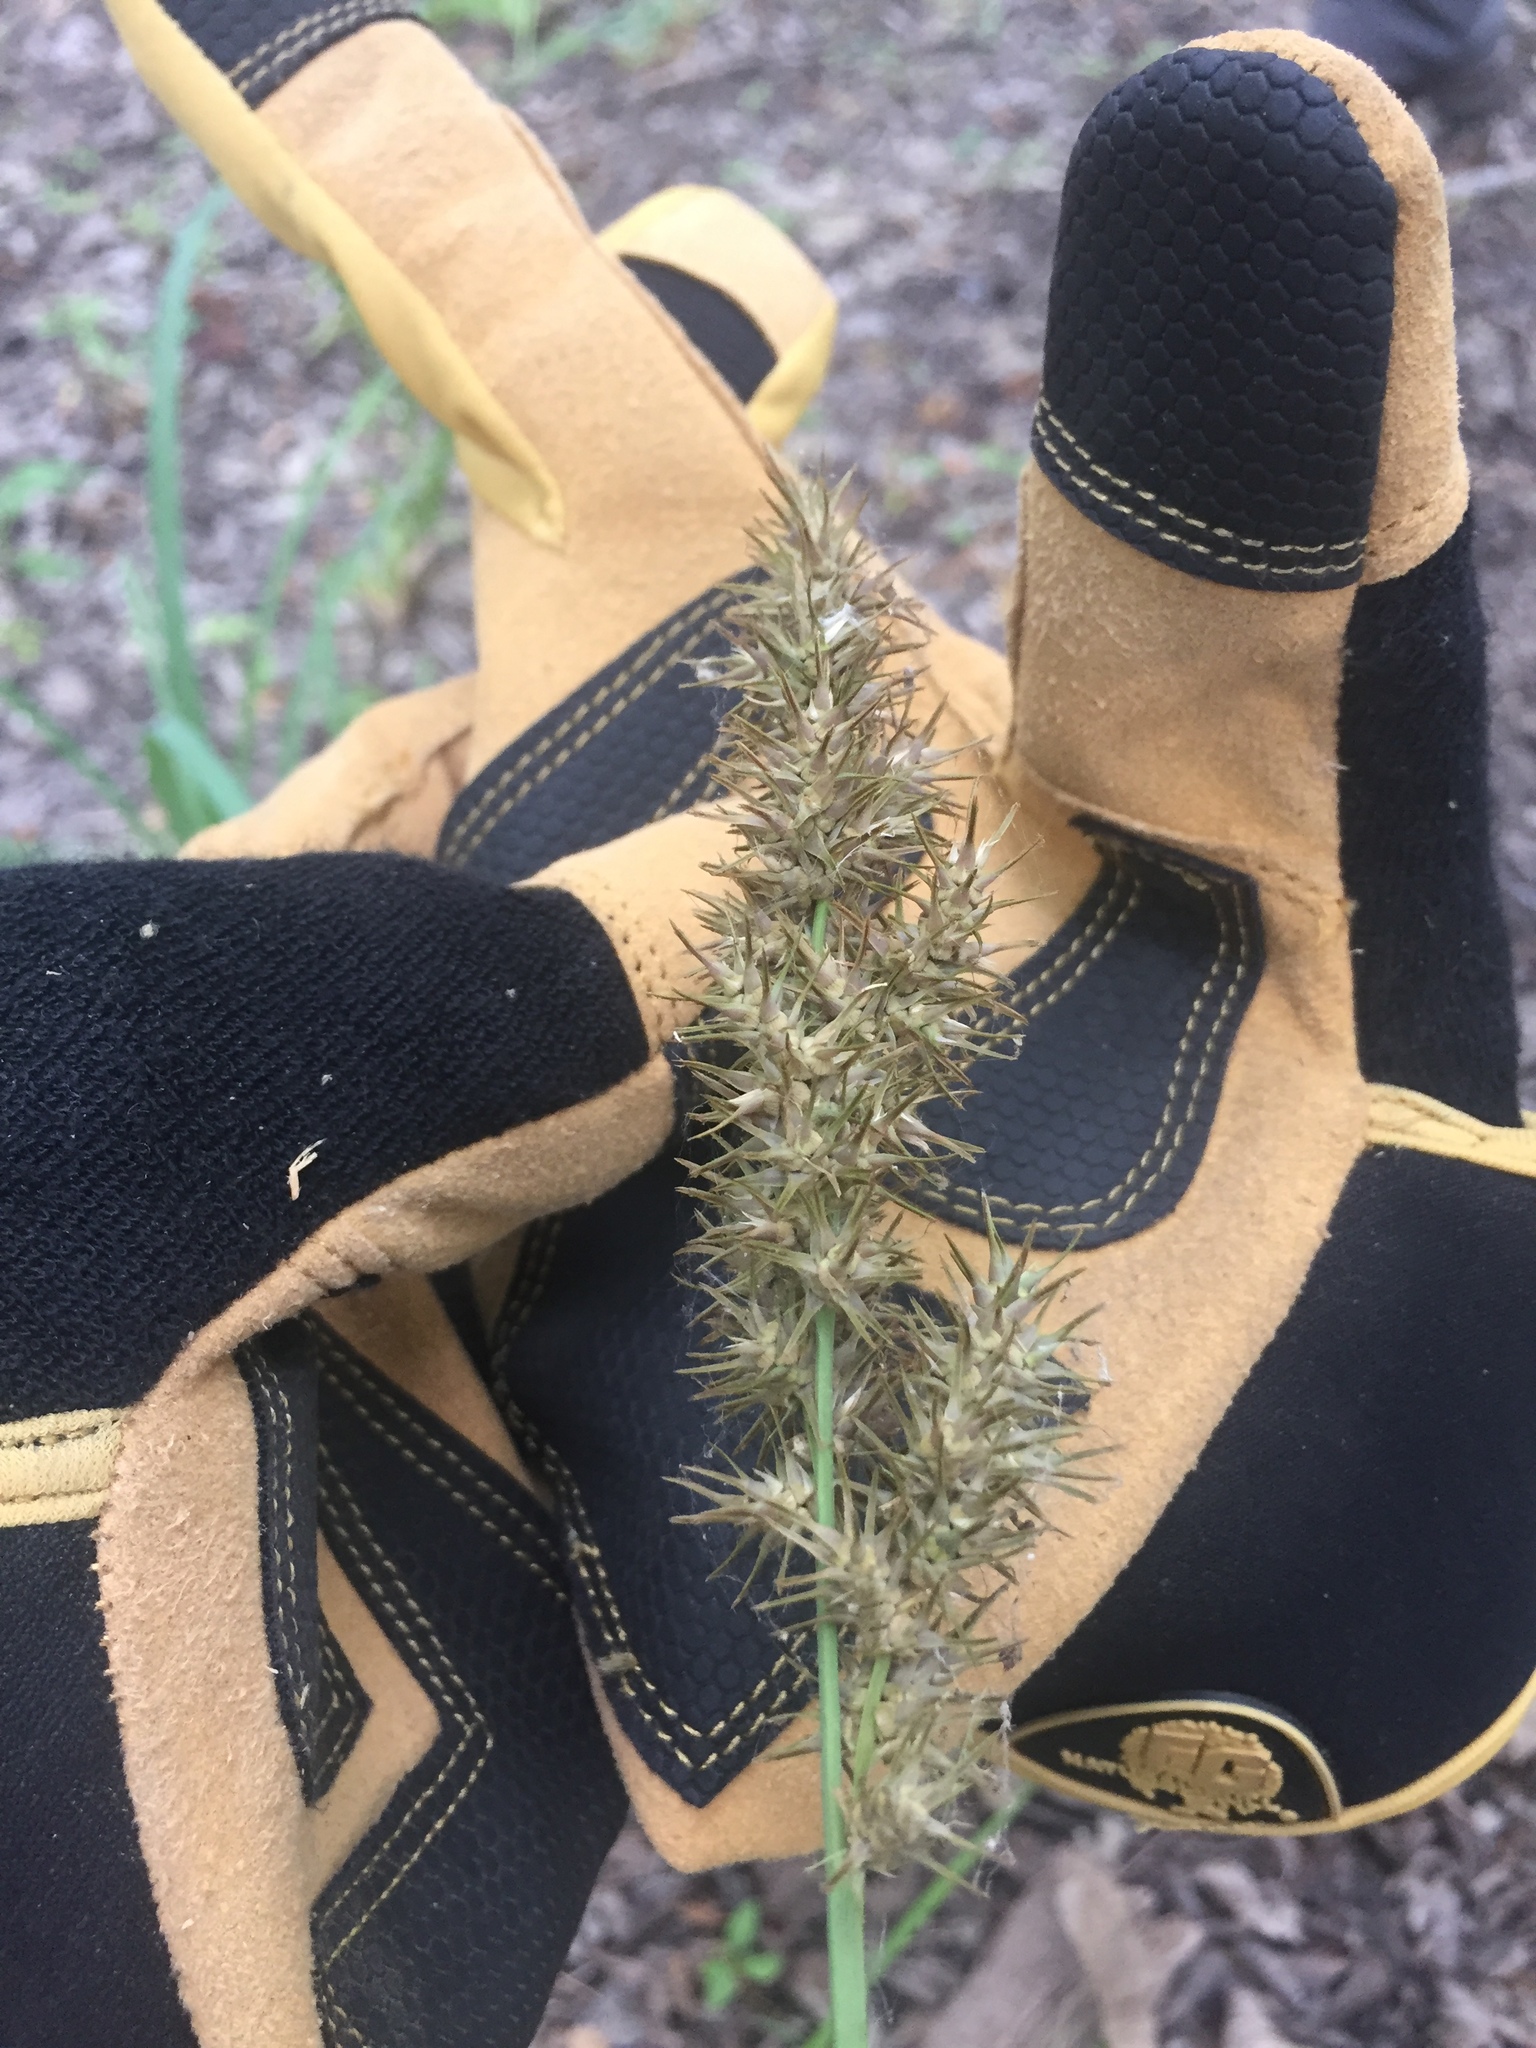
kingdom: Plantae
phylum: Tracheophyta
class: Liliopsida
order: Poales
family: Cyperaceae
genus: Carex
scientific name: Carex crus-corvi
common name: Crow-spur sedge
